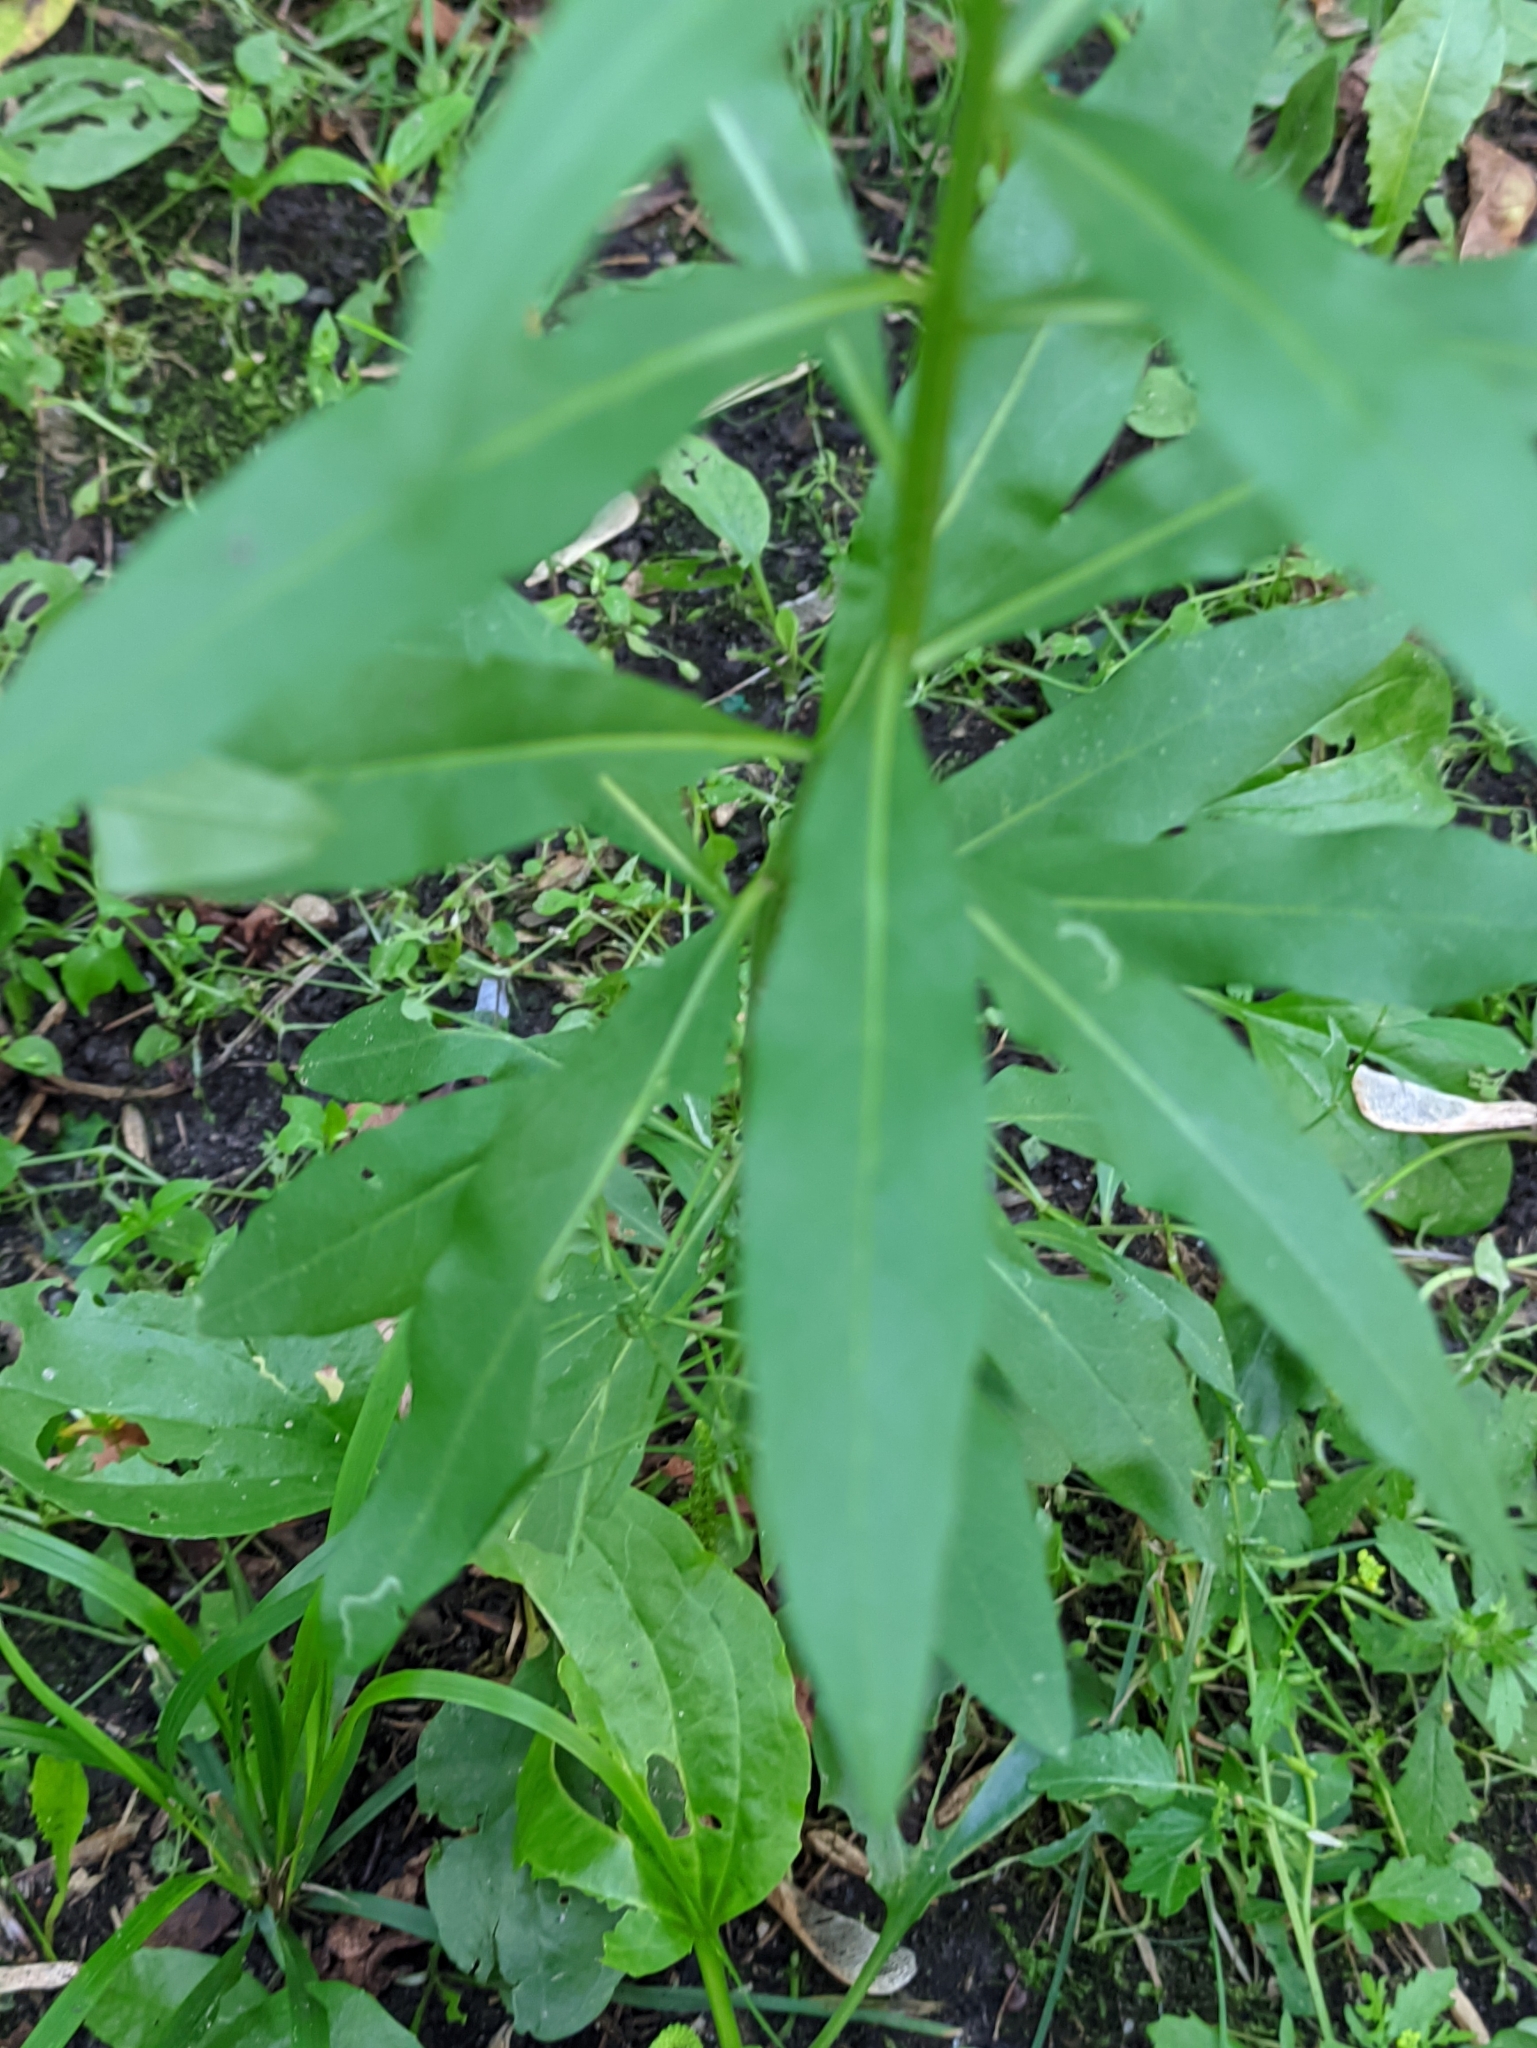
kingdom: Plantae
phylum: Tracheophyta
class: Magnoliopsida
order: Brassicales
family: Brassicaceae
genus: Erysimum
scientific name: Erysimum cheiranthoides
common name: Treacle mustard
